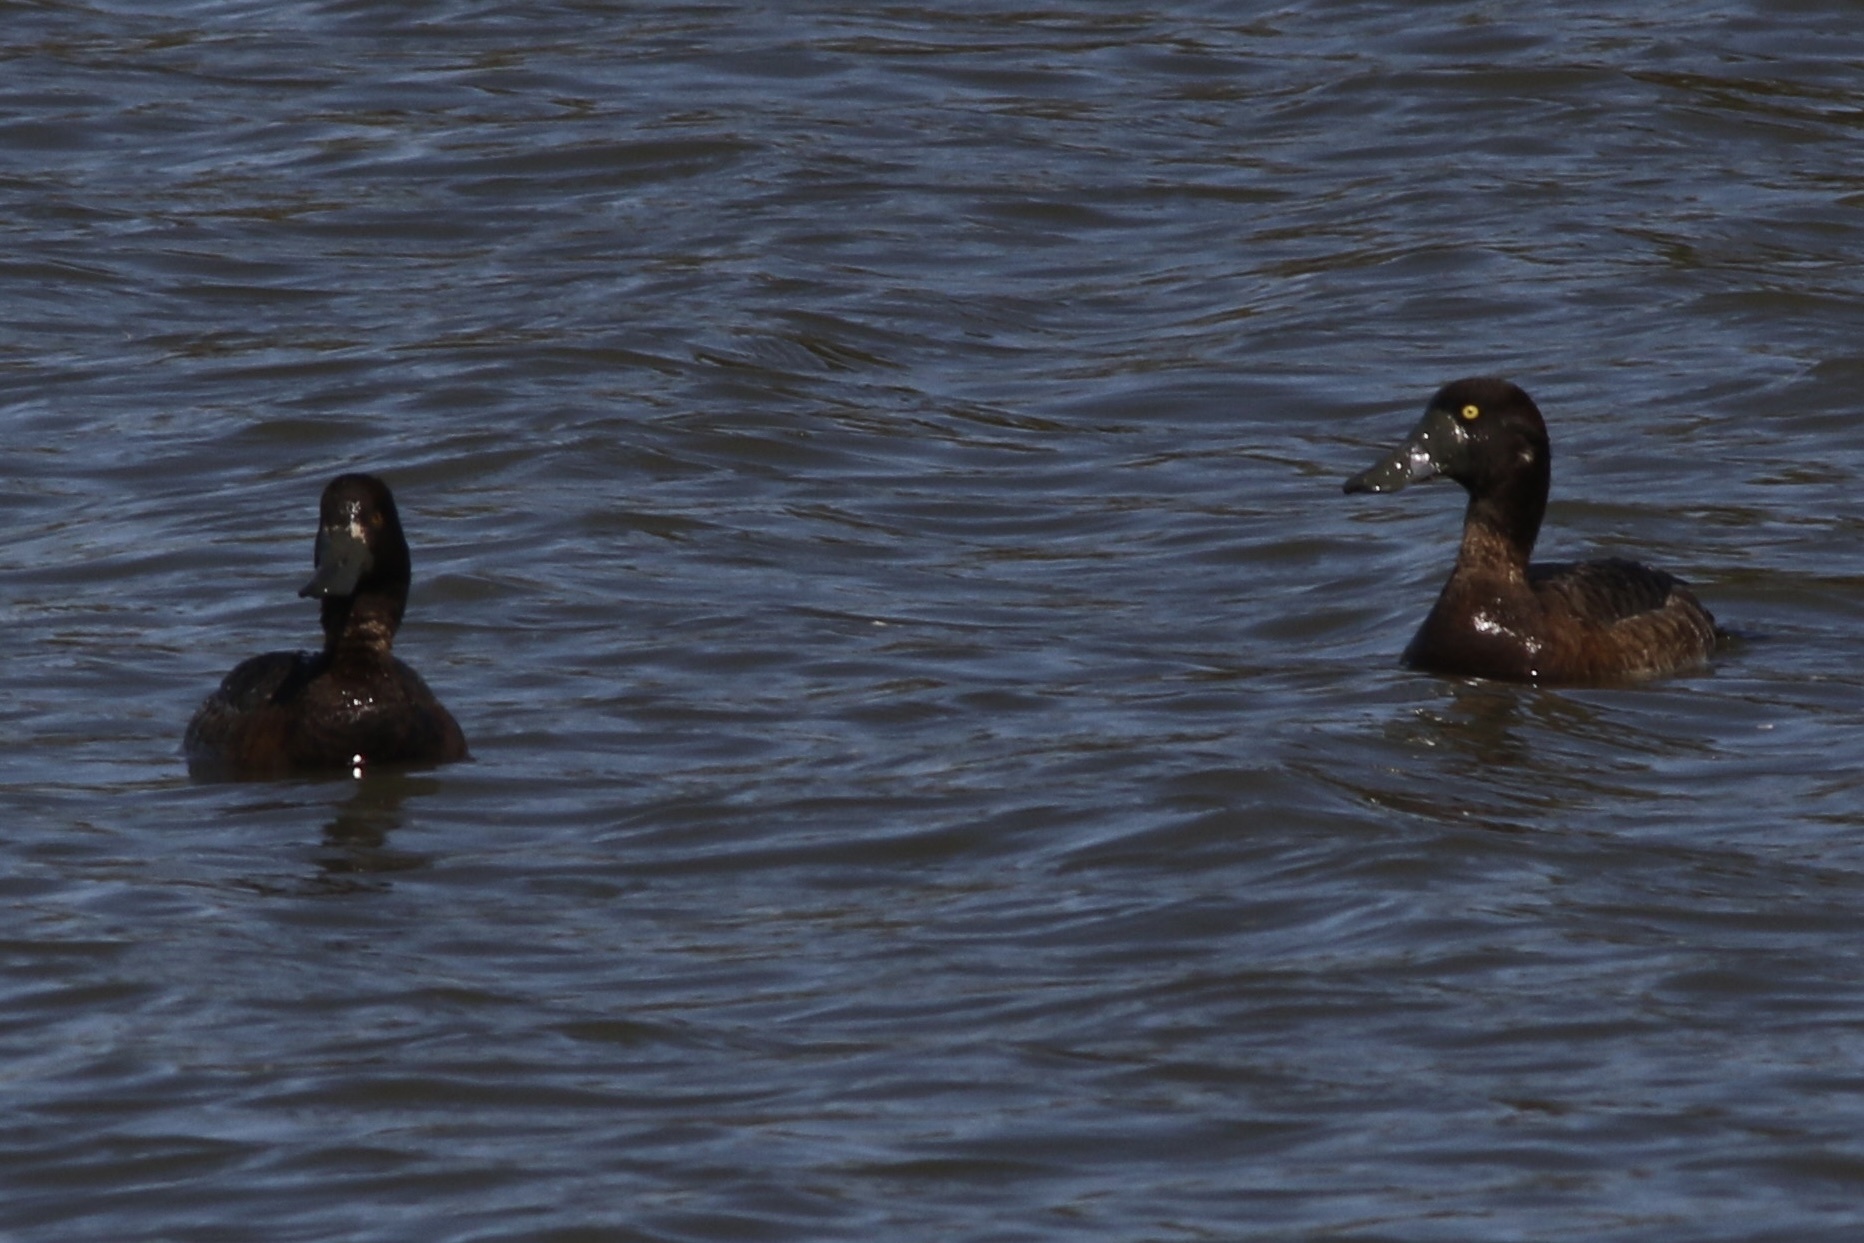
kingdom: Animalia
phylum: Chordata
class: Aves
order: Anseriformes
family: Anatidae
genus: Aythya
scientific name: Aythya marila
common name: Greater scaup
